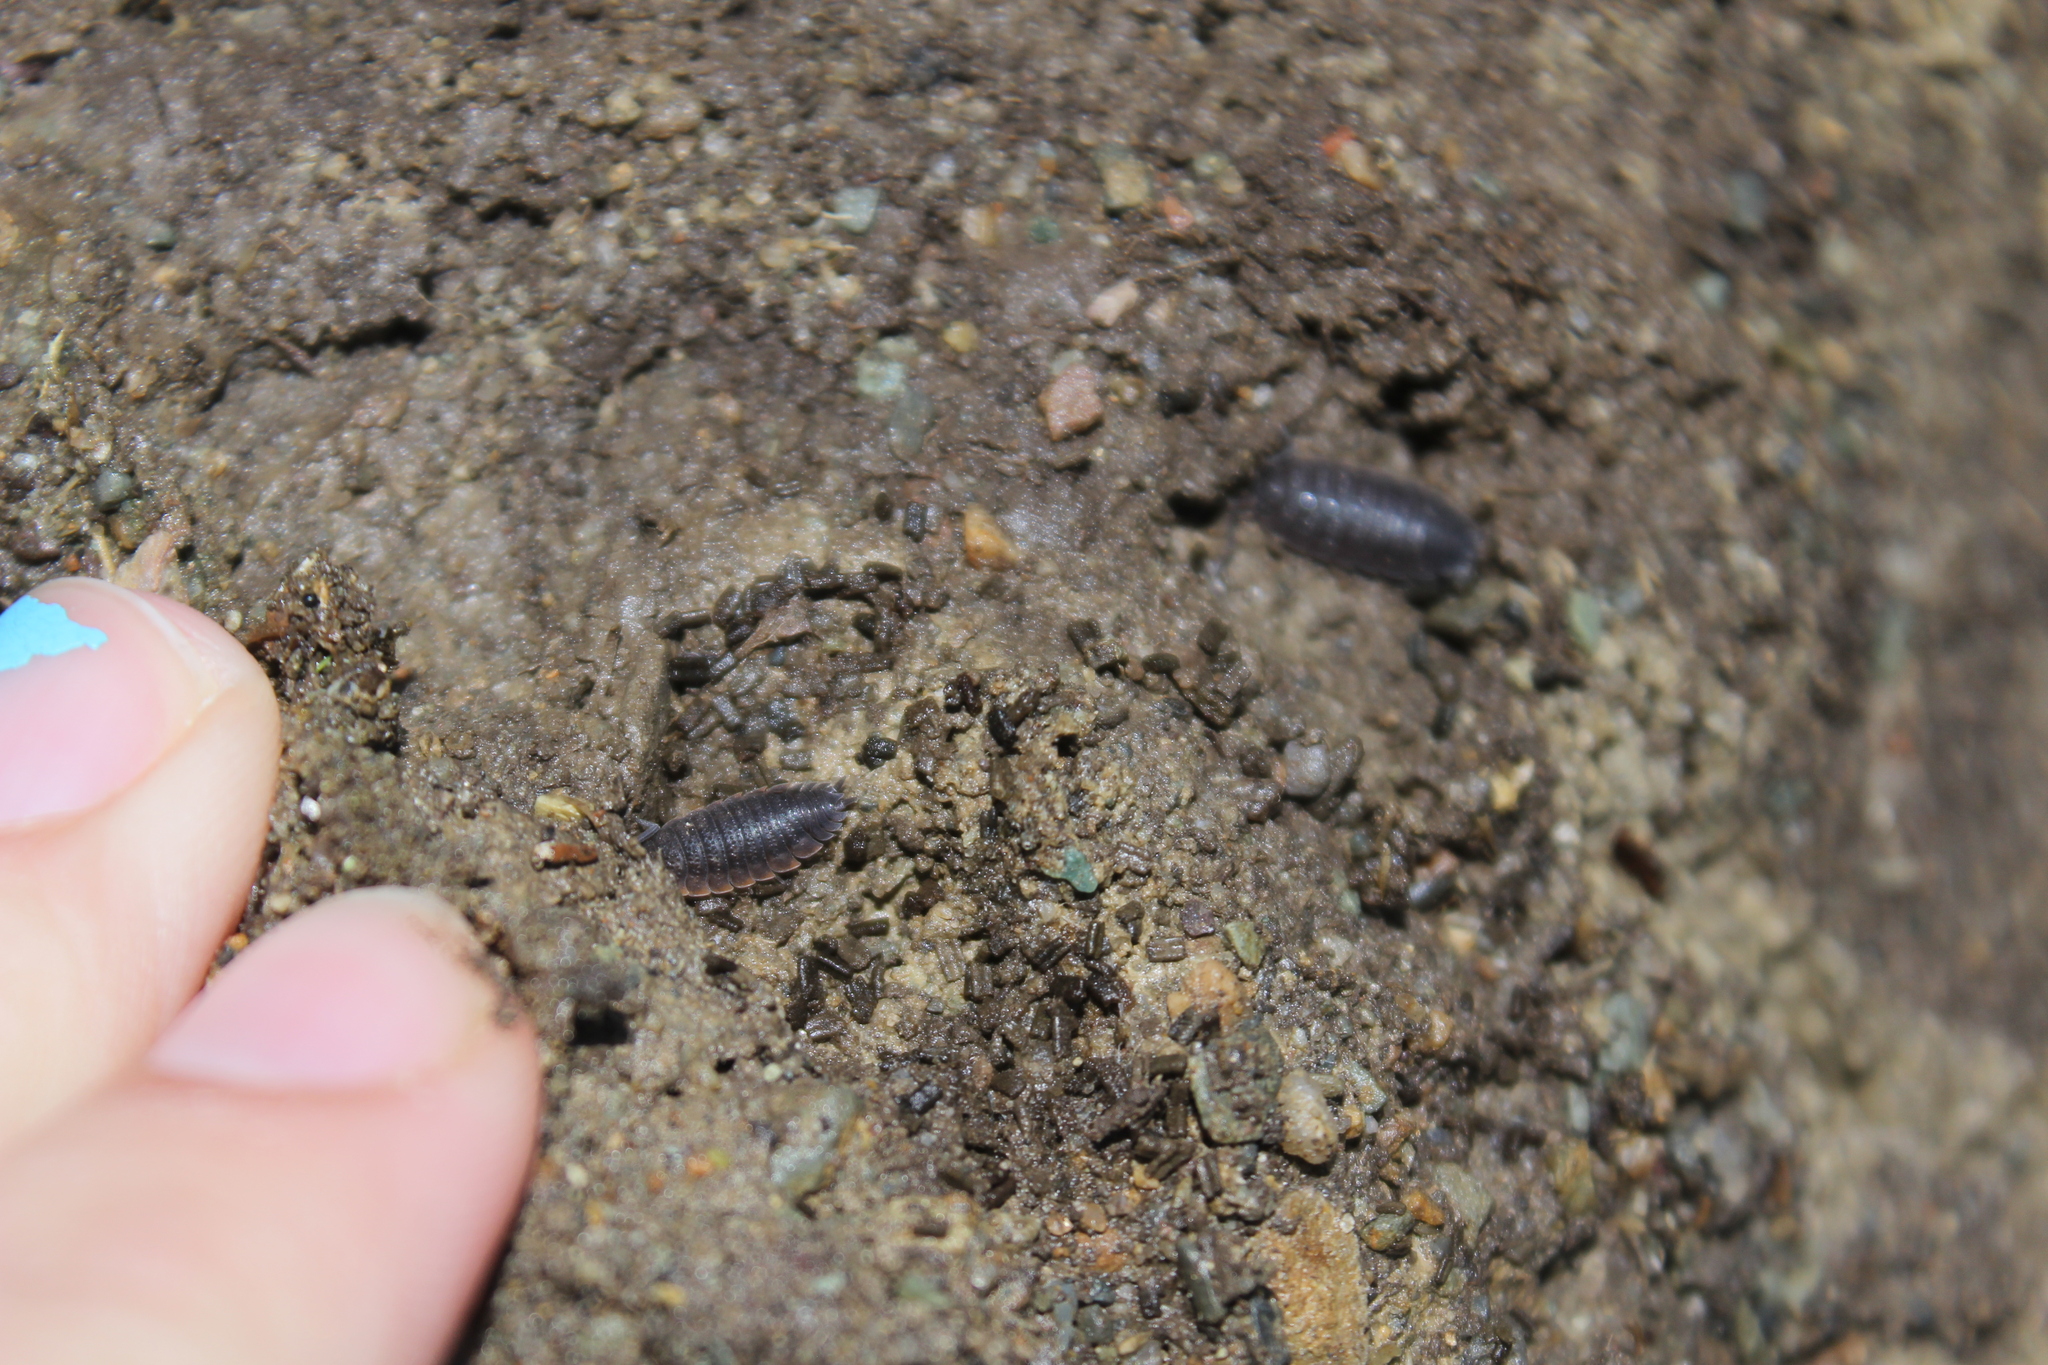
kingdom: Animalia
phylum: Arthropoda
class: Malacostraca
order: Isopoda
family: Porcellionidae
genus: Porcellio
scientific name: Porcellio scaber
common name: Common rough woodlouse
